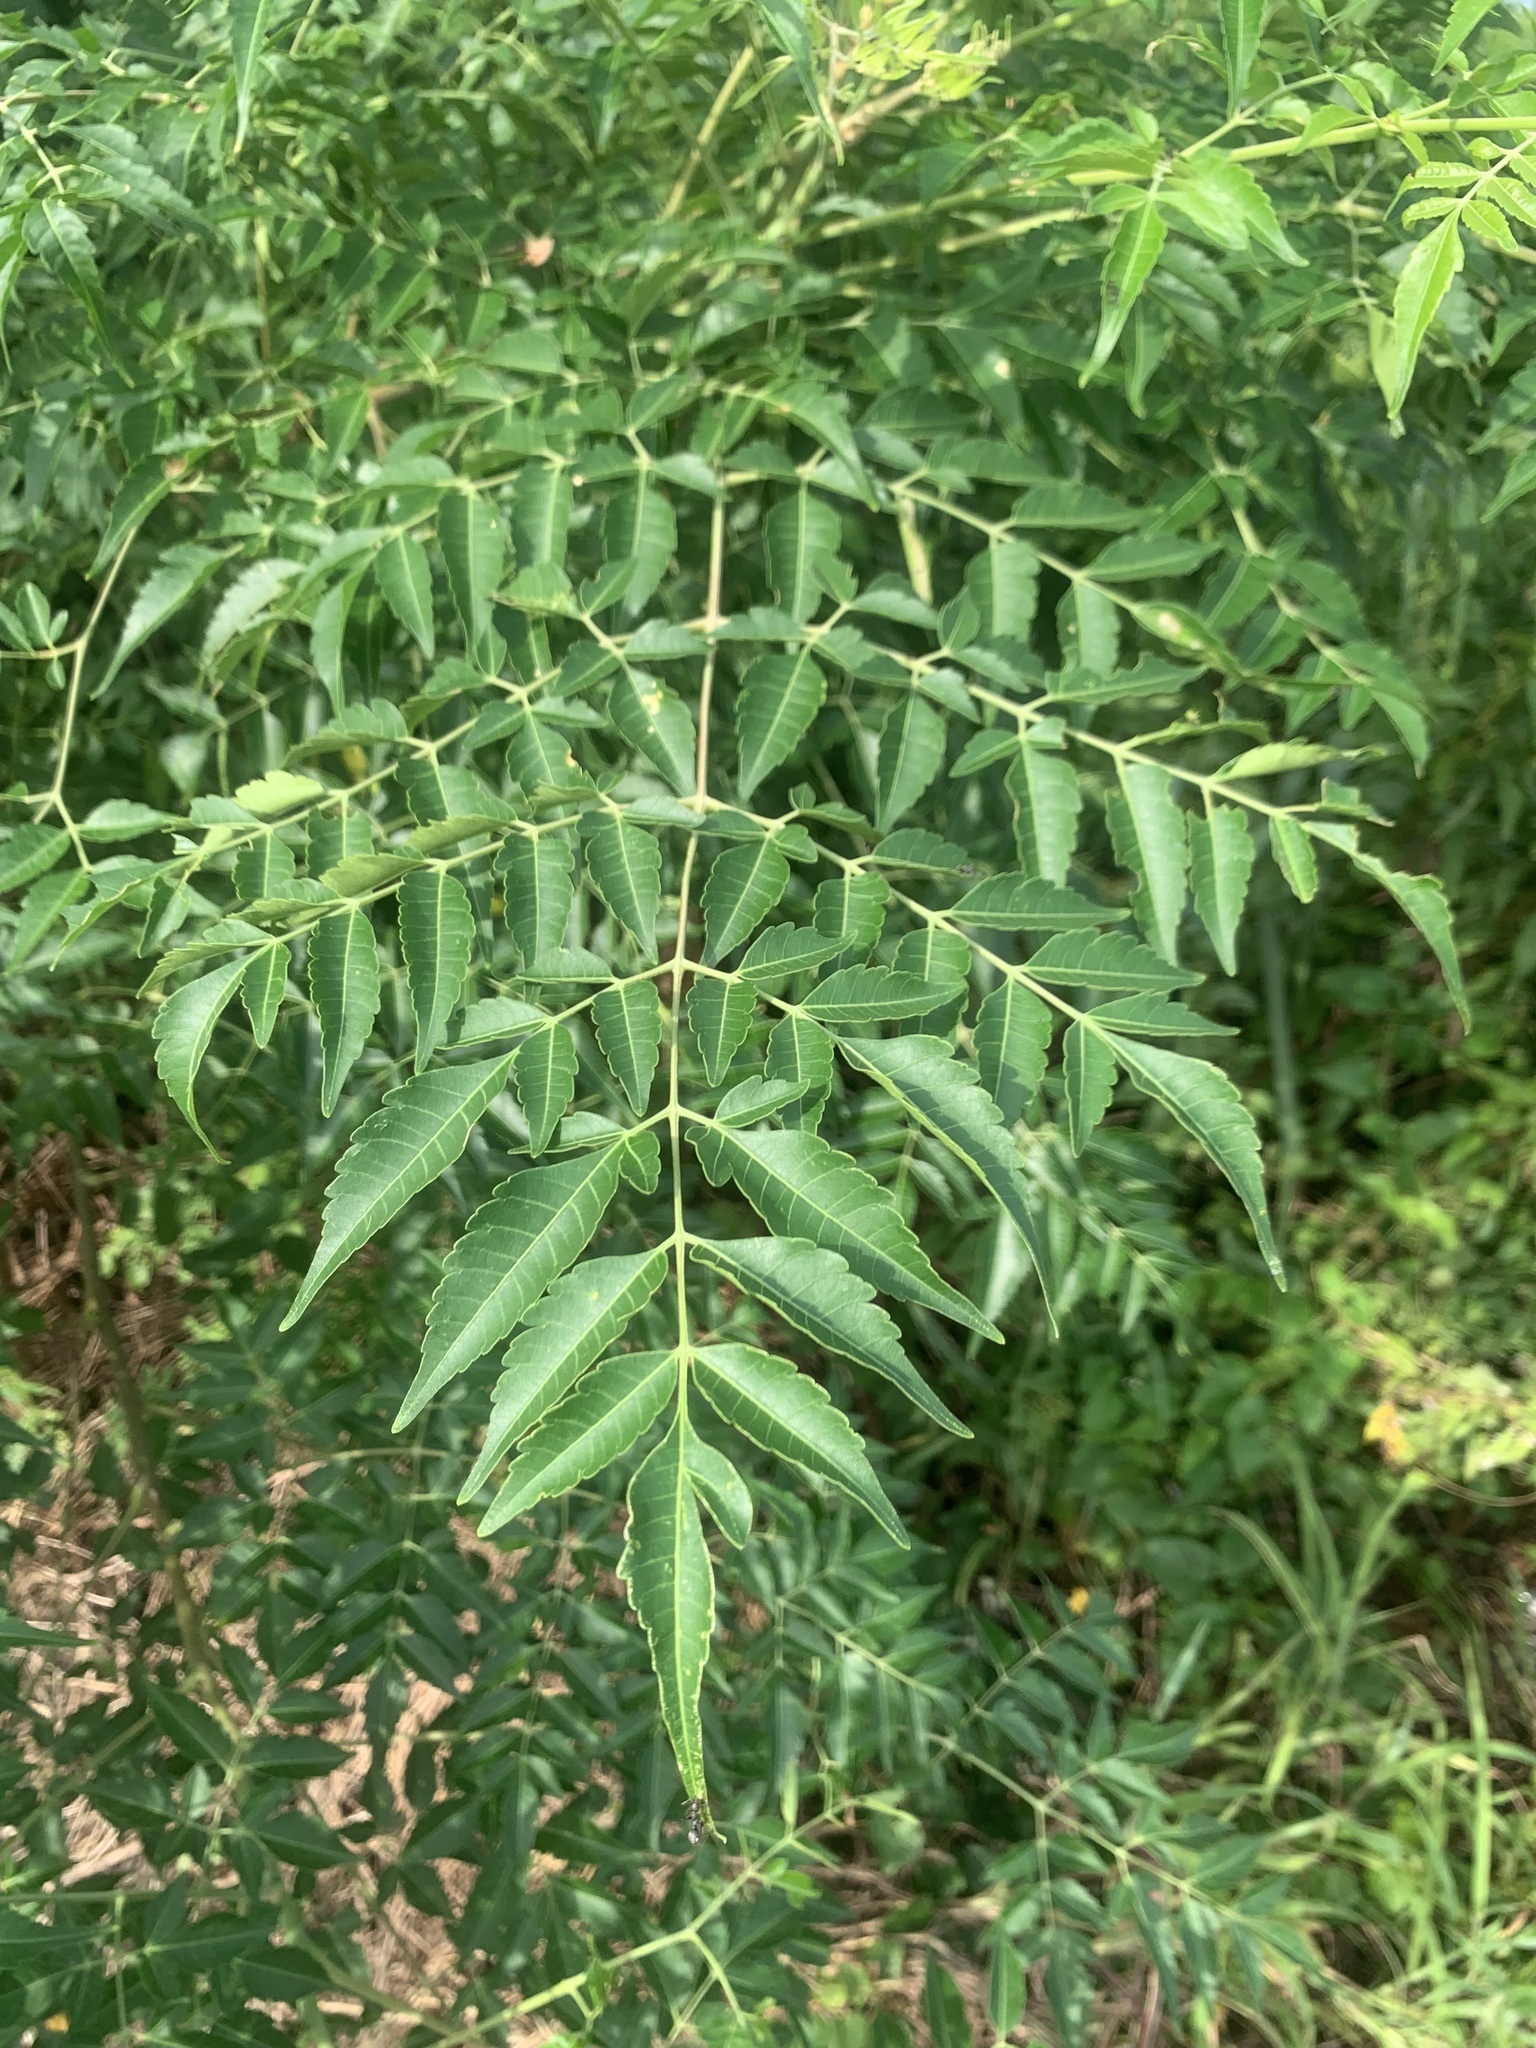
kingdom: Plantae
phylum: Tracheophyta
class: Magnoliopsida
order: Sapindales
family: Meliaceae
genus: Melia
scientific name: Melia azedarach
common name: Chinaberrytree
